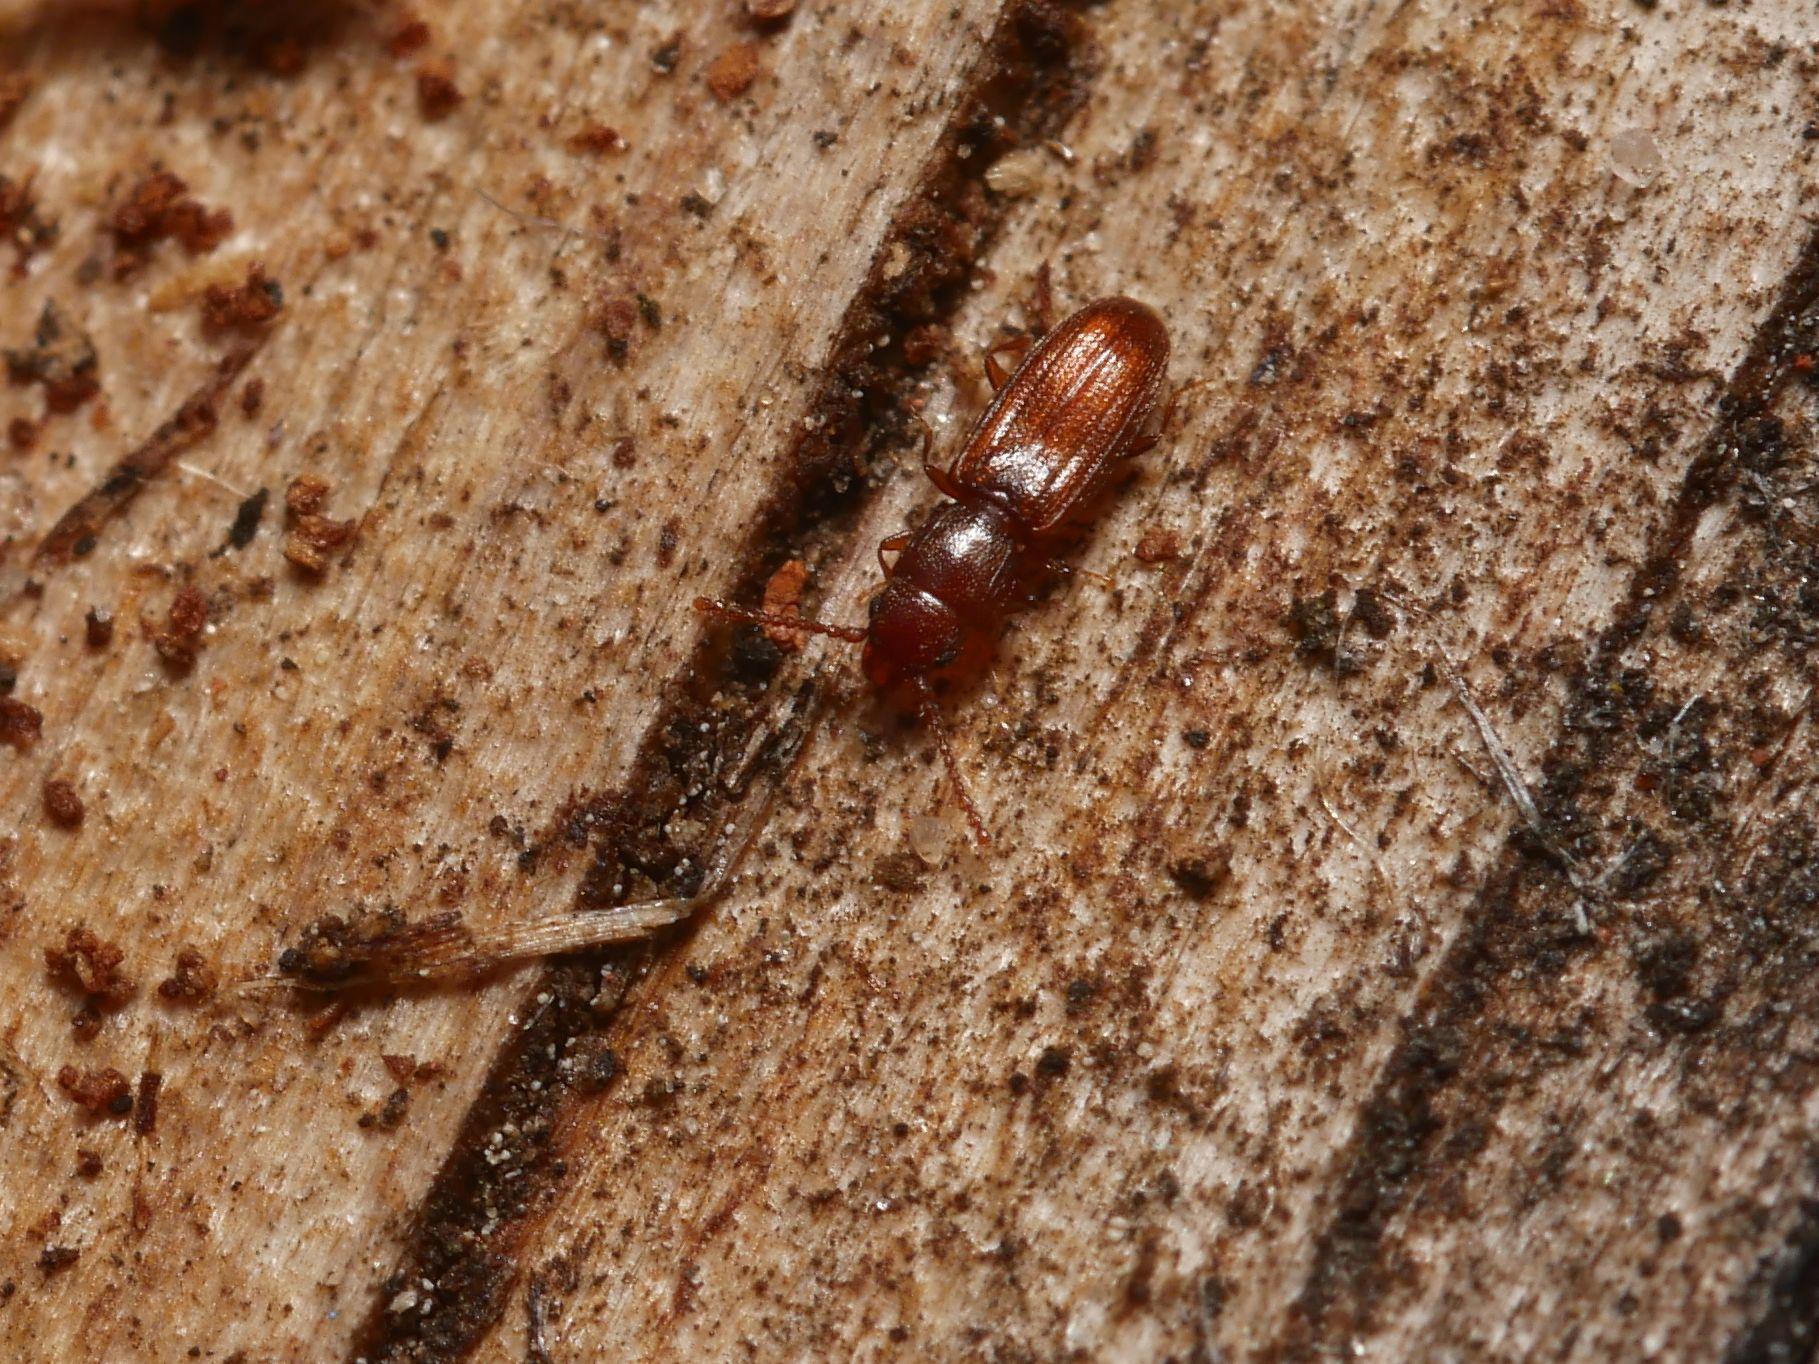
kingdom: Animalia
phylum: Arthropoda
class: Insecta
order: Coleoptera
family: Laemophloeidae
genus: Cryptolestes
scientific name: Cryptolestes duplicatus
